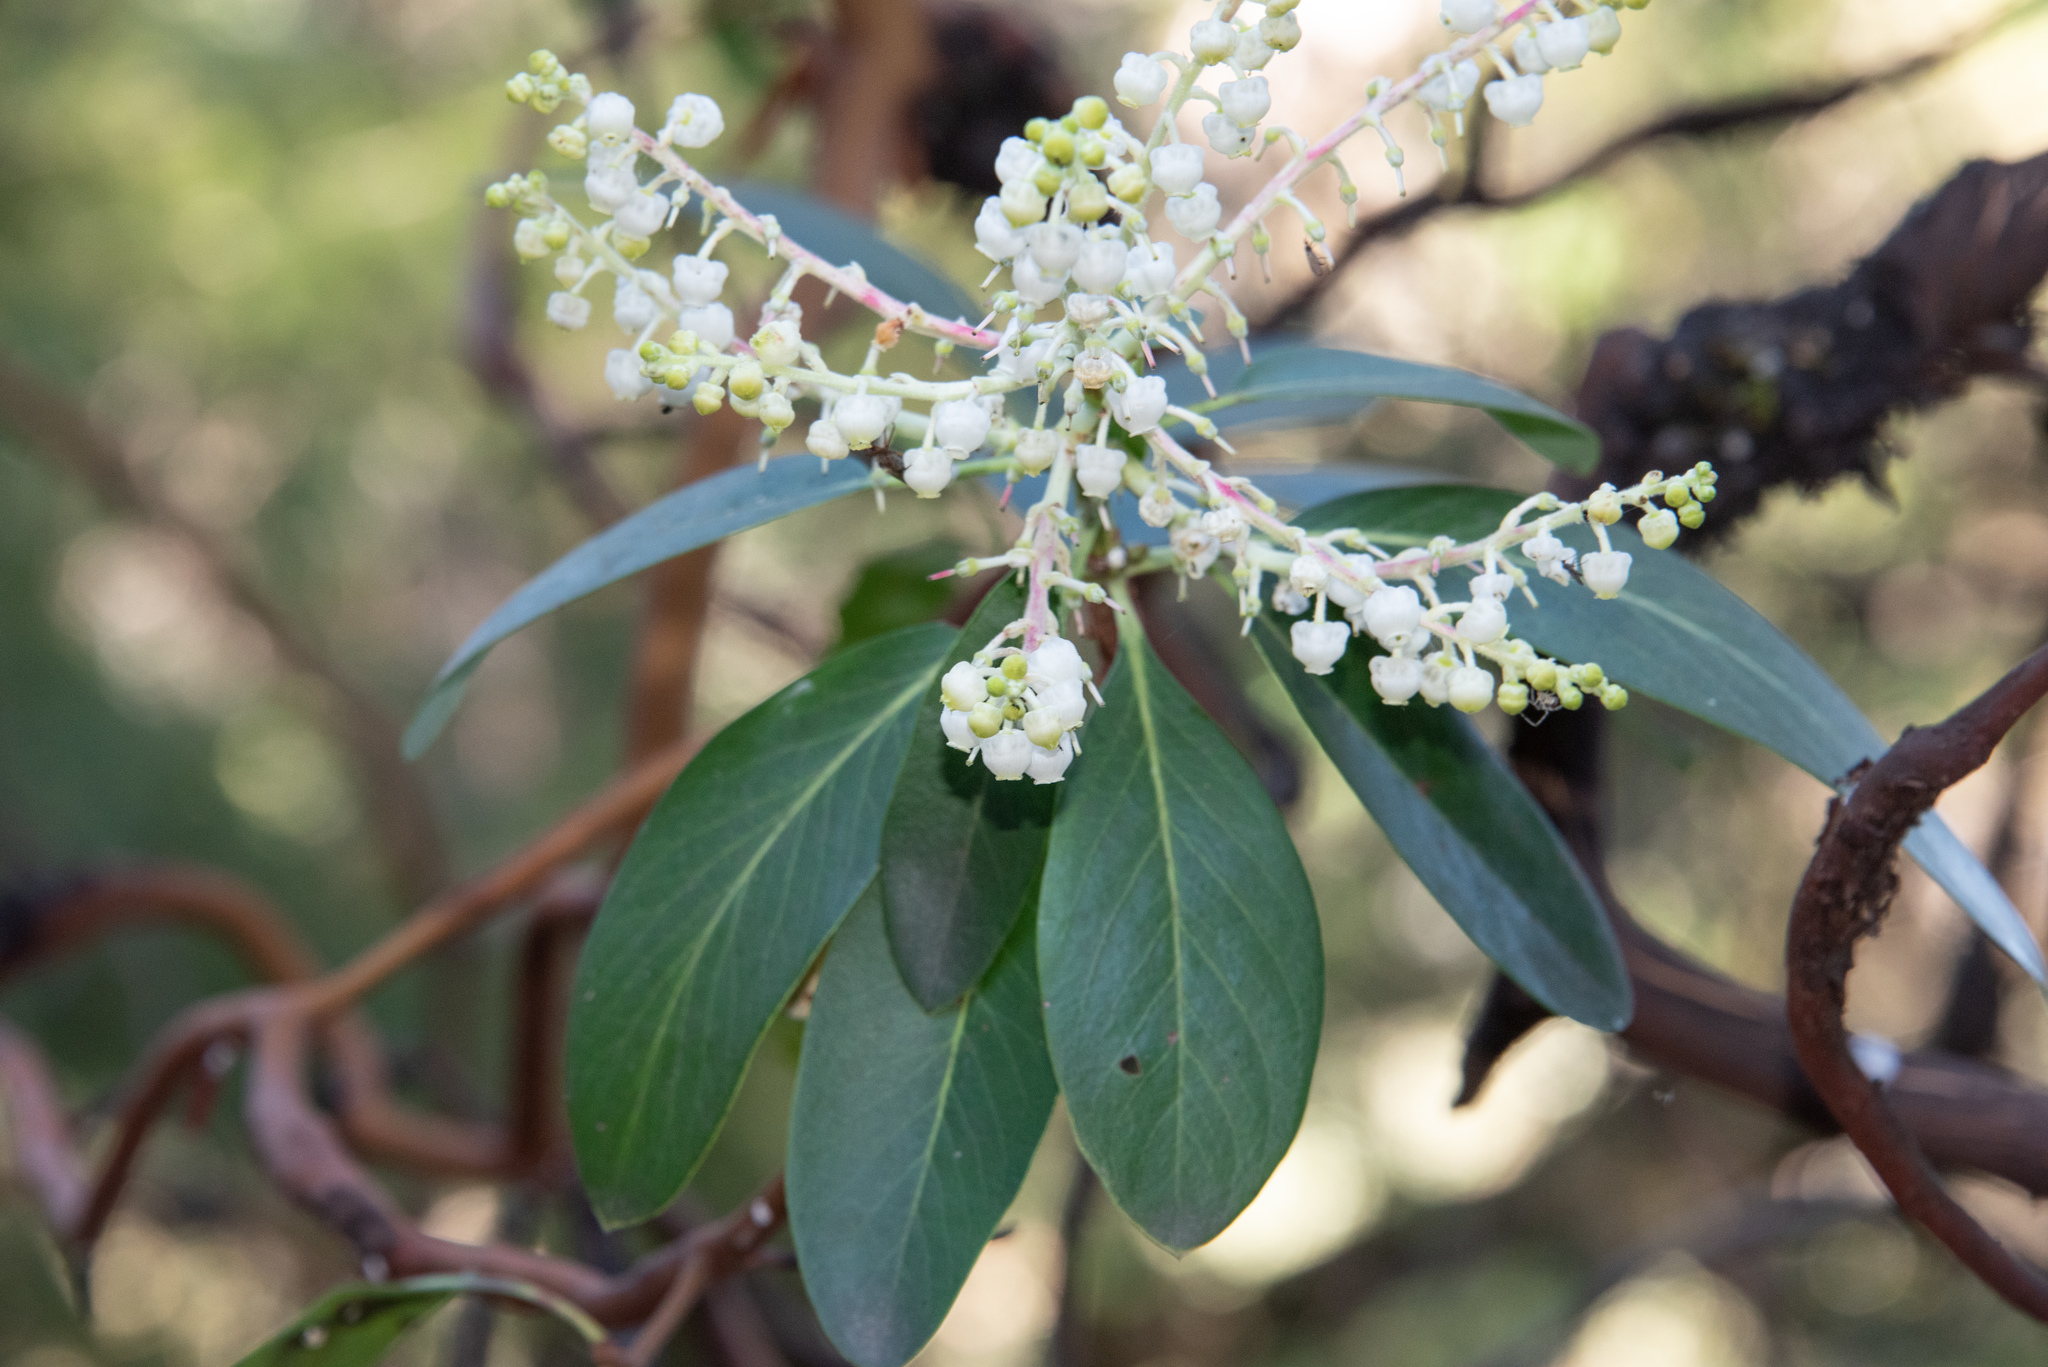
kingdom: Plantae
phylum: Tracheophyta
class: Magnoliopsida
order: Ericales
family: Ericaceae
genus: Arbutus
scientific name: Arbutus menziesii
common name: Pacific madrone
